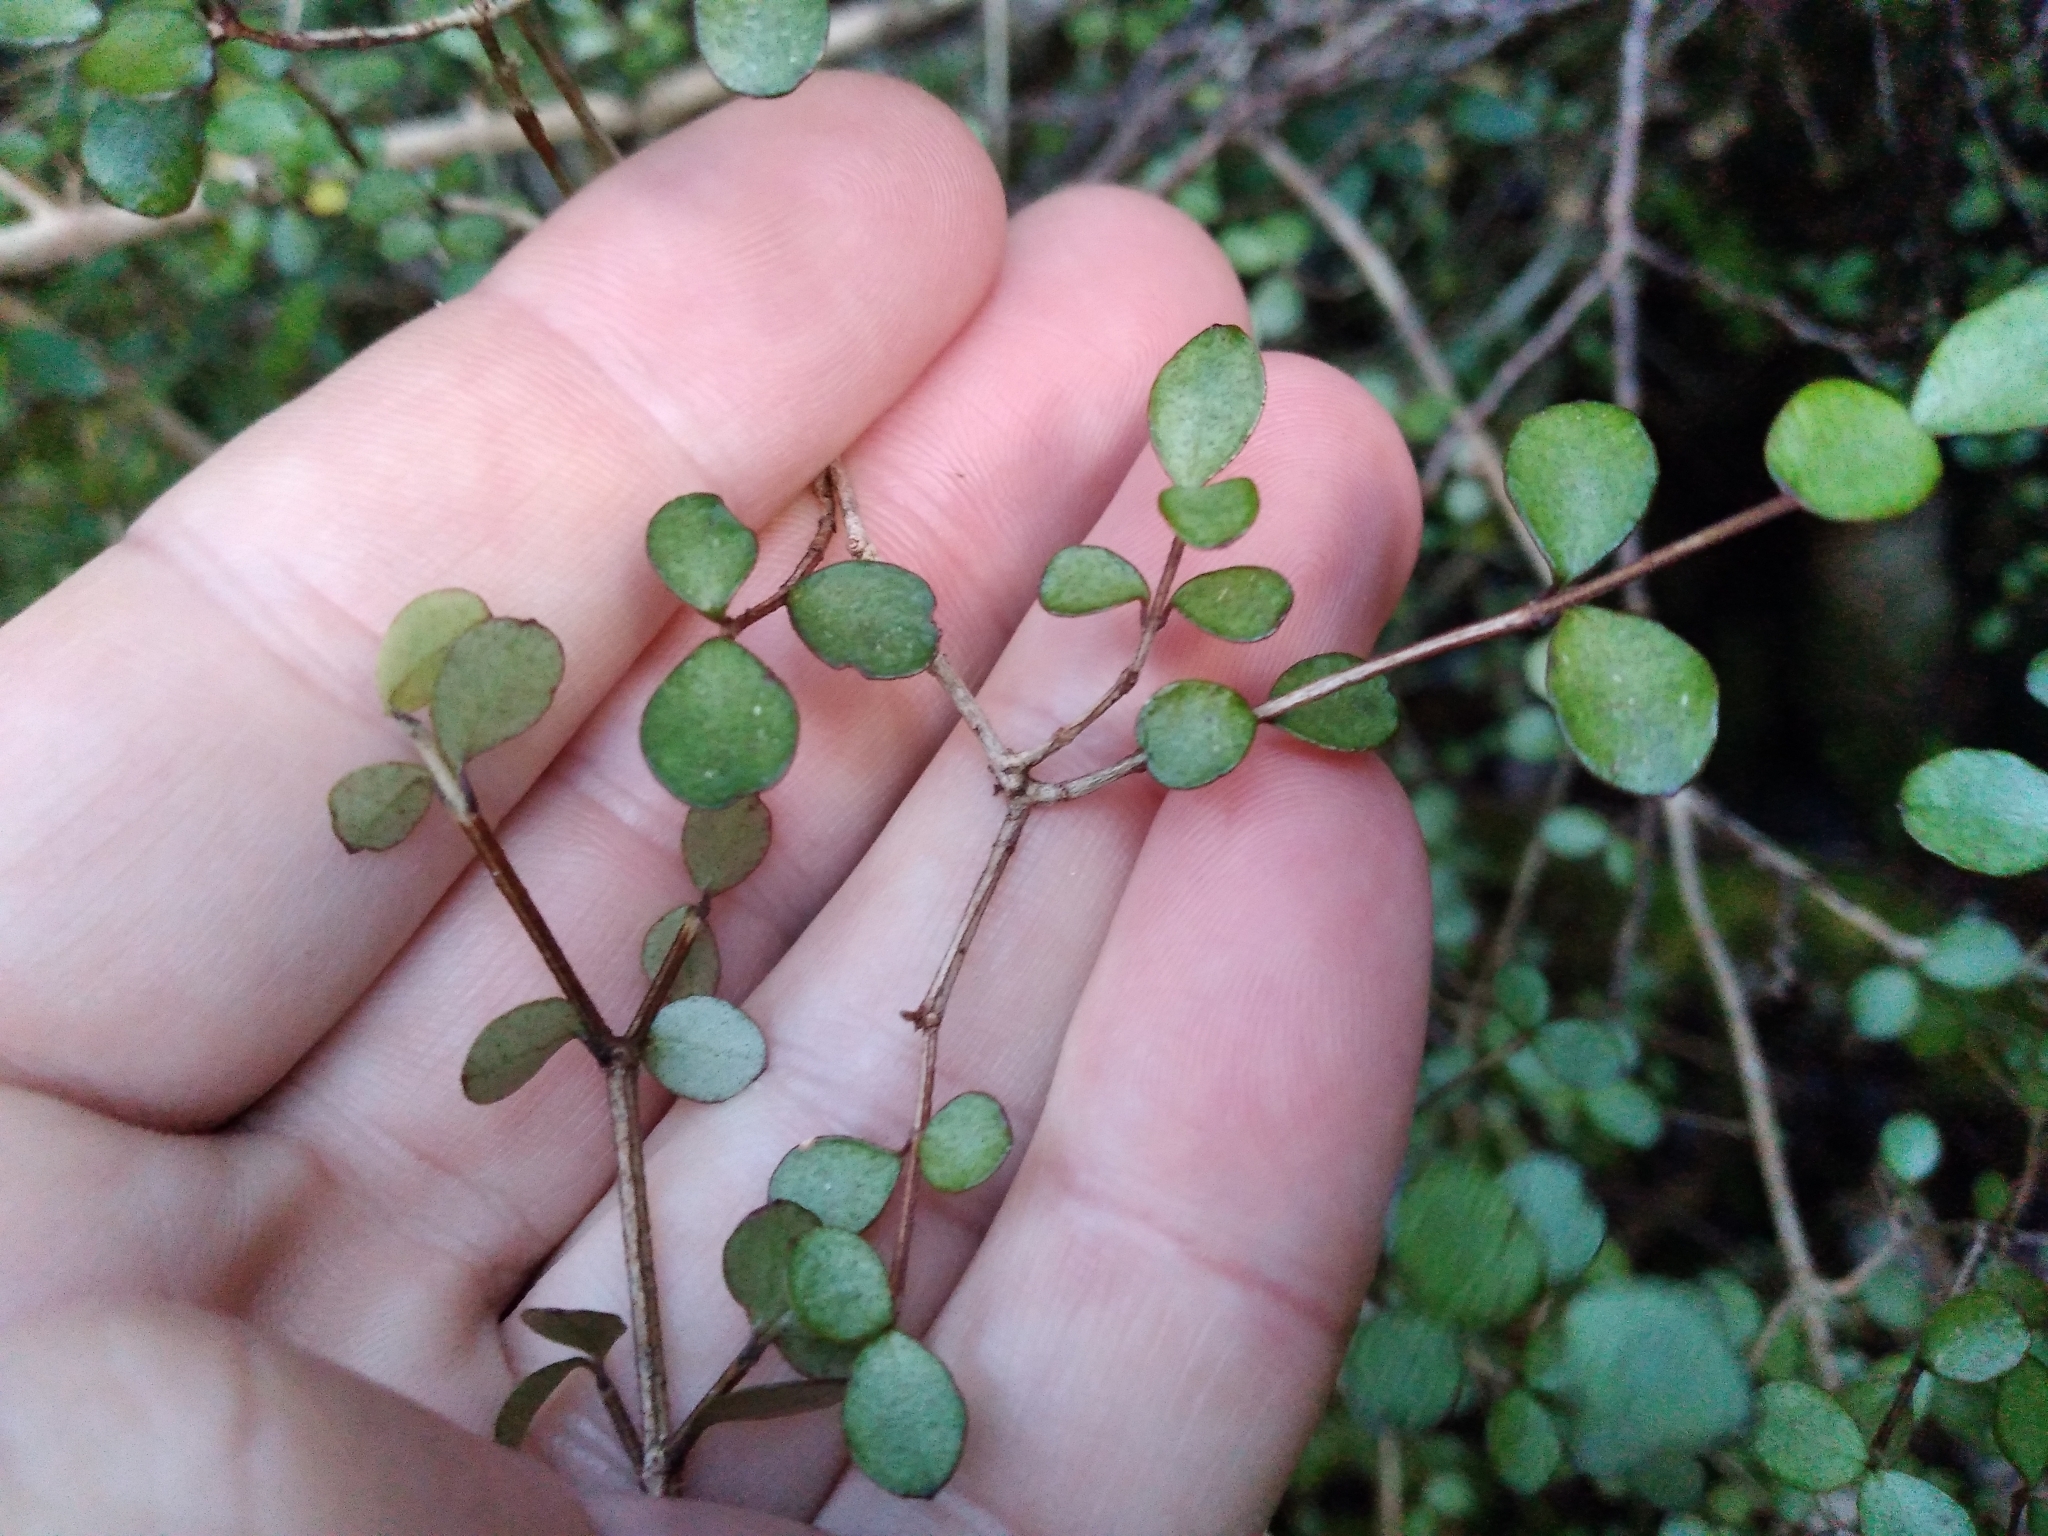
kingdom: Plantae
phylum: Tracheophyta
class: Magnoliopsida
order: Myrtales
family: Myrtaceae
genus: Neomyrtus
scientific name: Neomyrtus pedunculata
